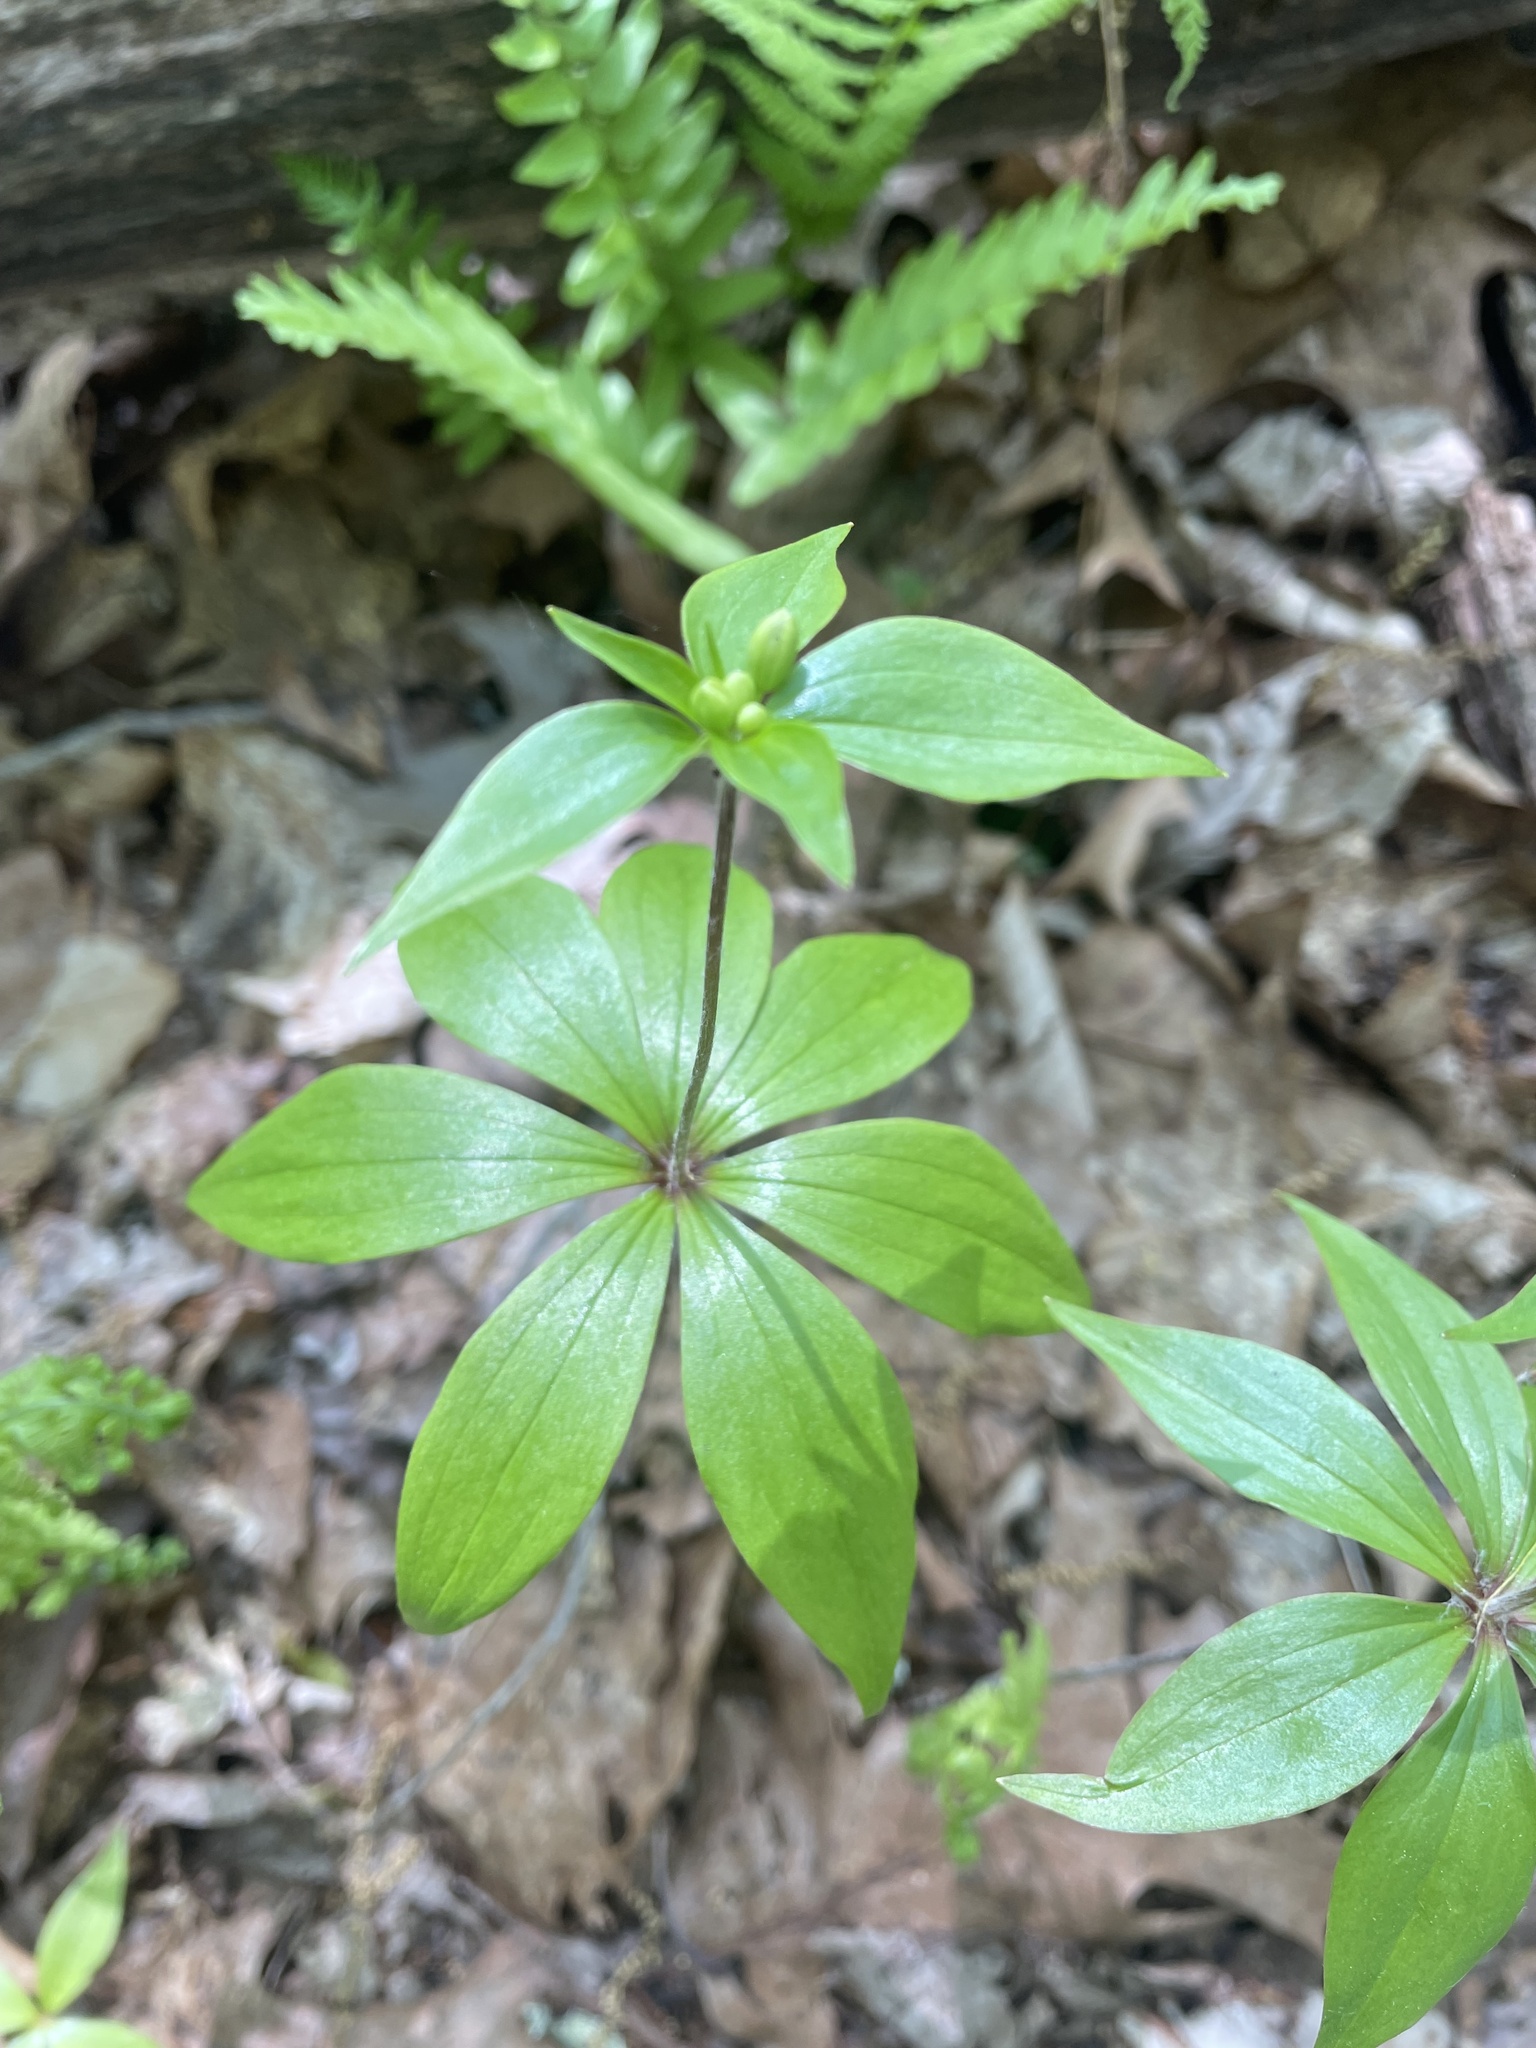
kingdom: Plantae
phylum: Tracheophyta
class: Liliopsida
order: Liliales
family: Liliaceae
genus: Medeola
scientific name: Medeola virginiana
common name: Indian cucumber-root
